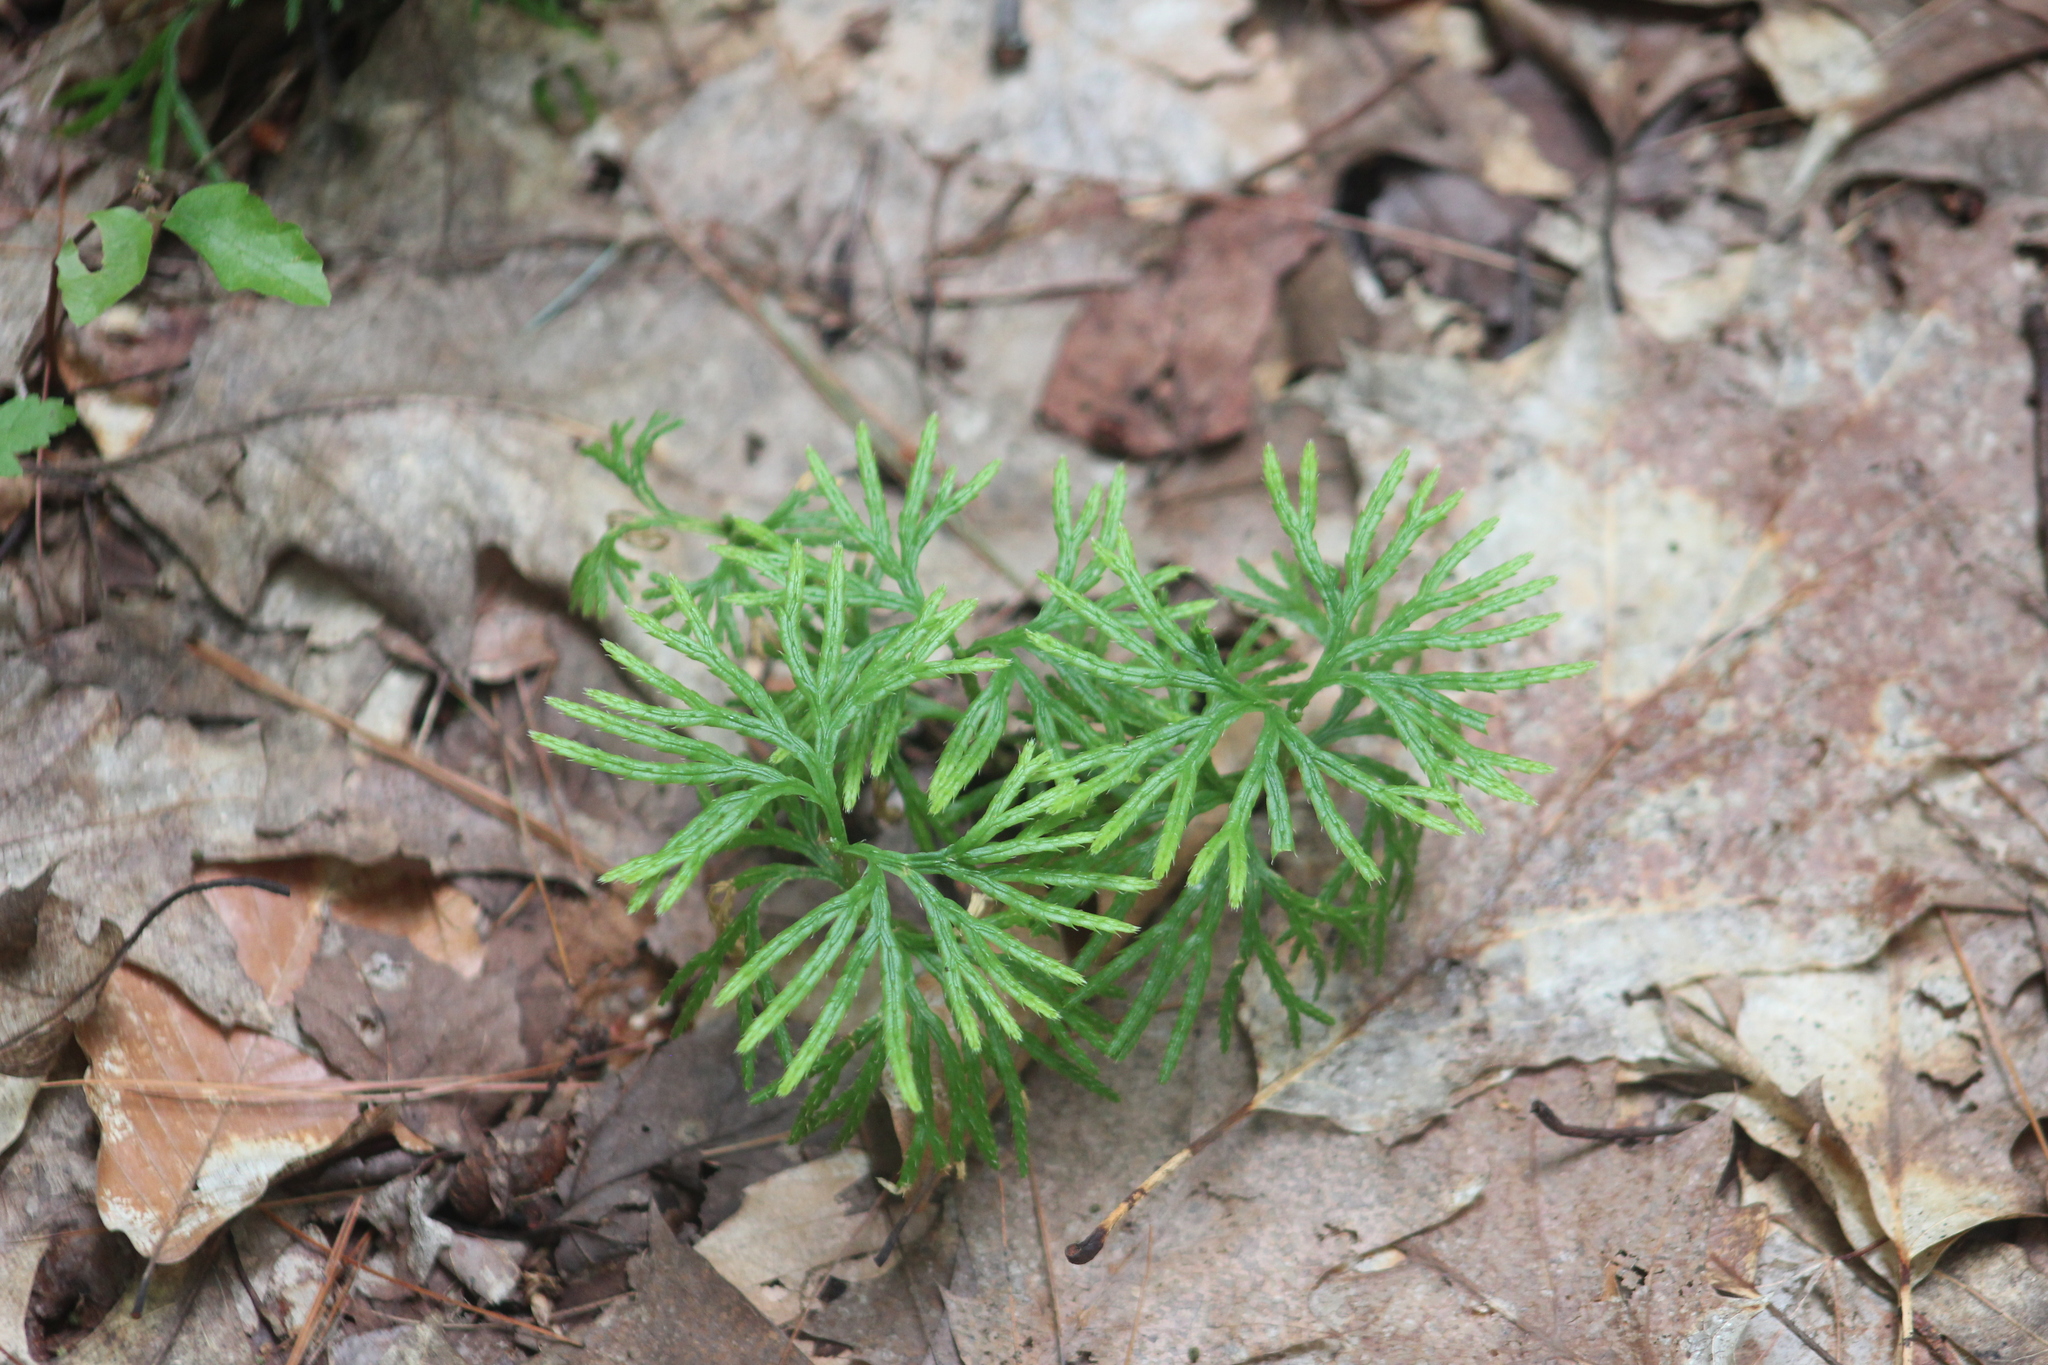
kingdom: Plantae
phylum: Tracheophyta
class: Lycopodiopsida
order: Lycopodiales
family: Lycopodiaceae
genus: Diphasiastrum
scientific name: Diphasiastrum digitatum
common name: Southern running-pine
